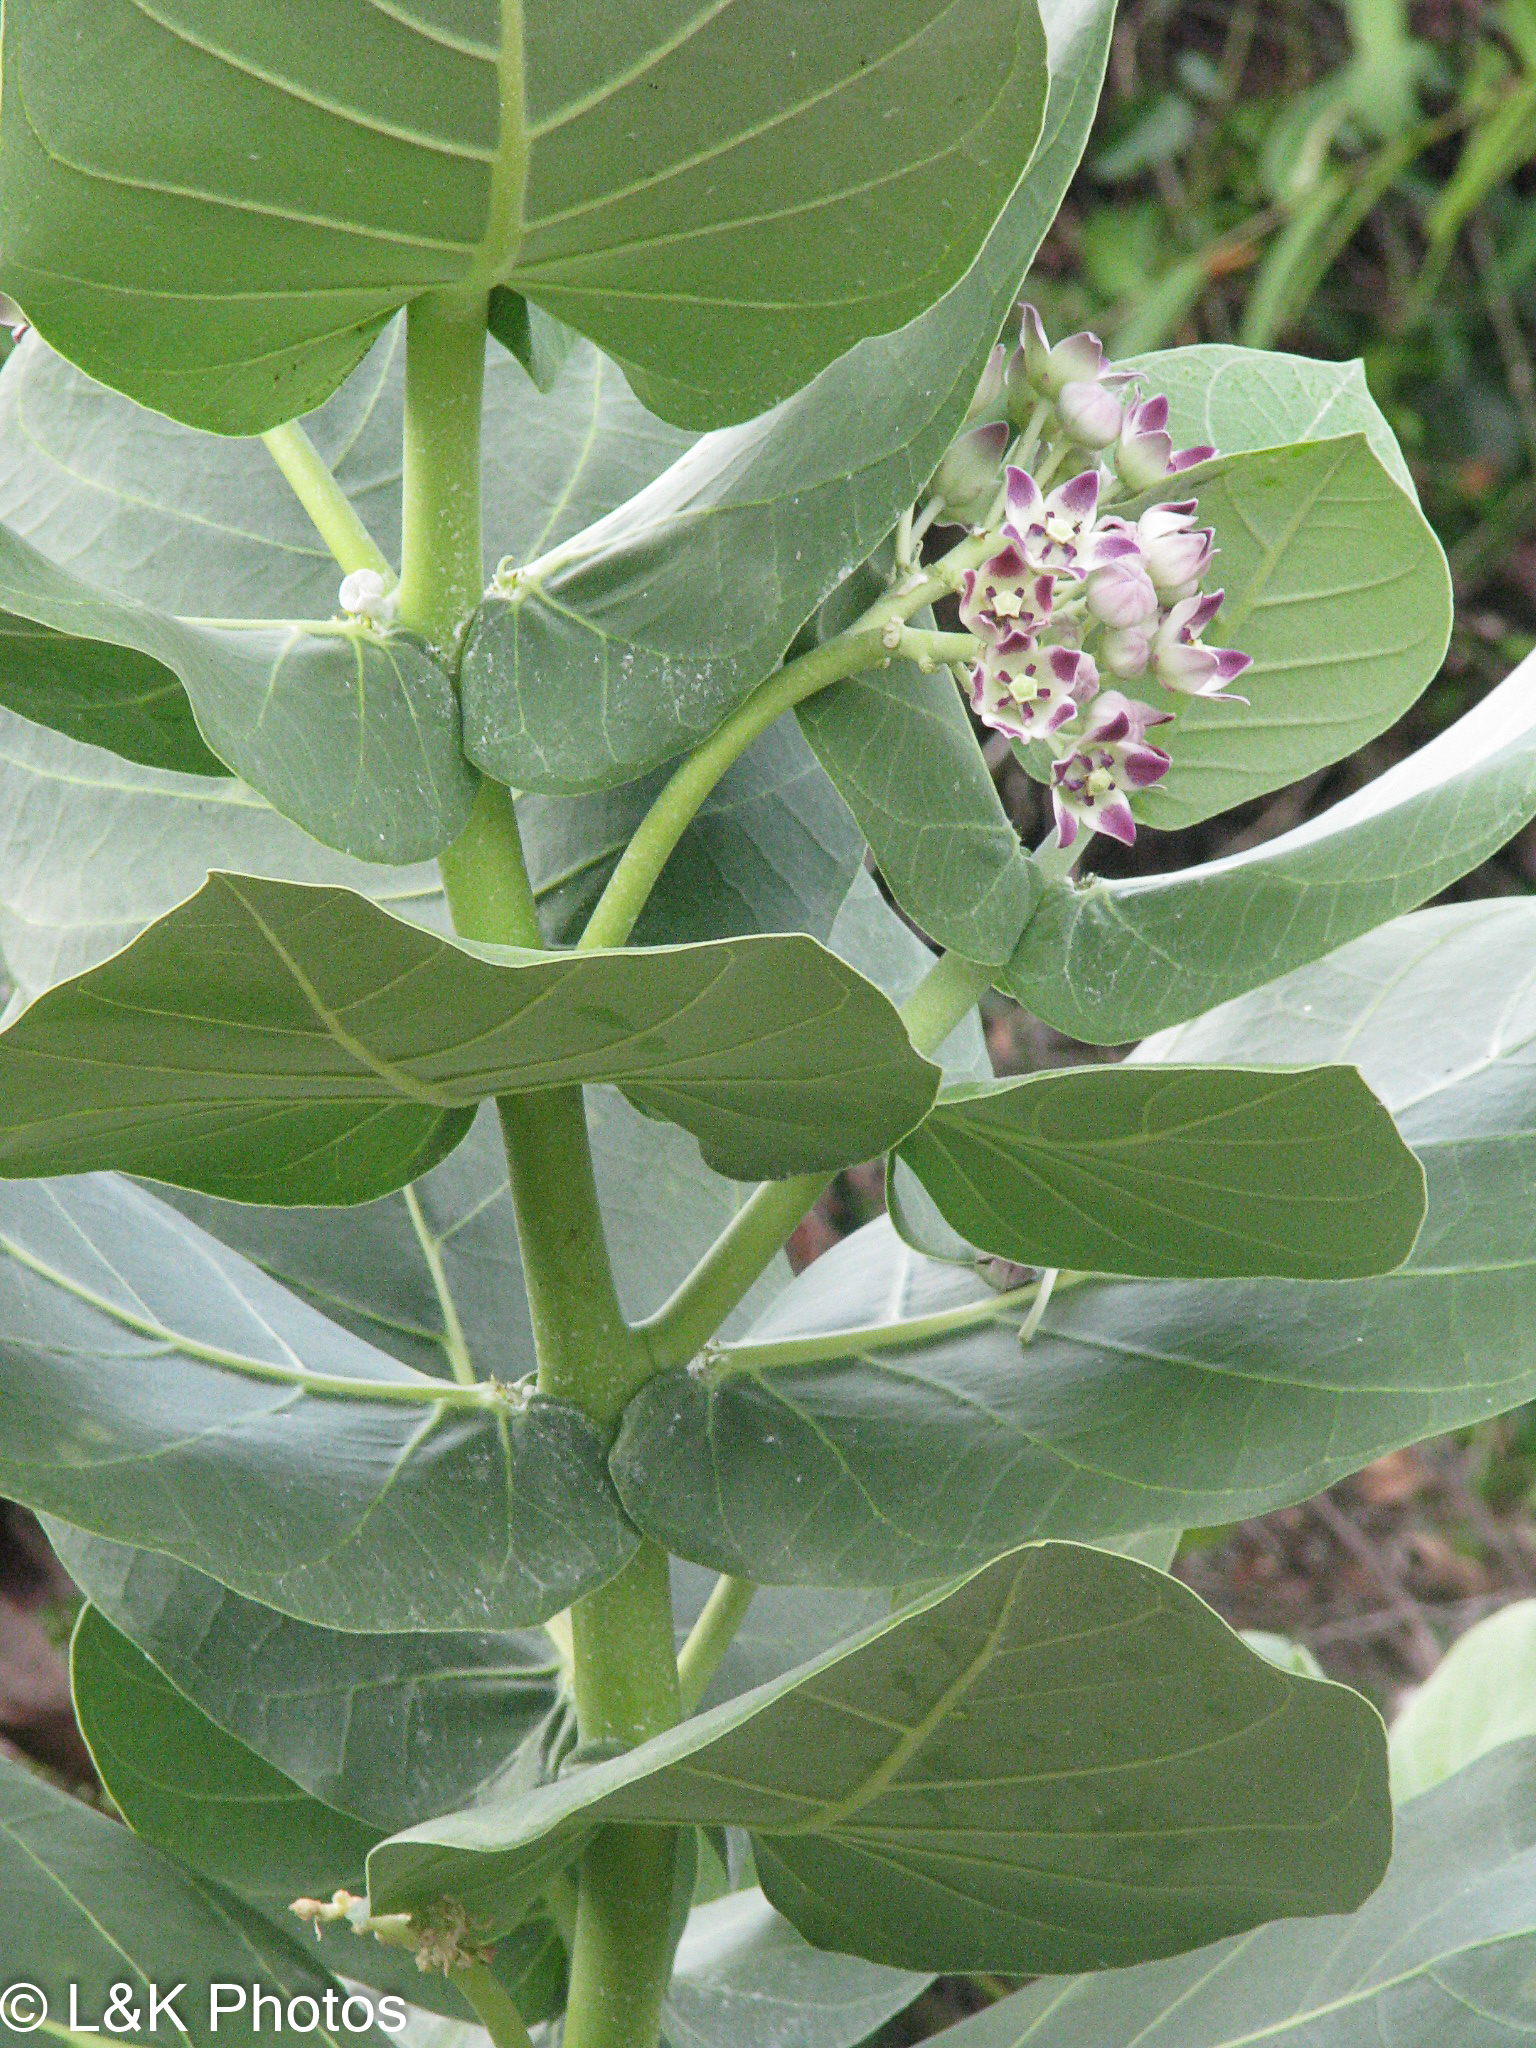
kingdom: Plantae
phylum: Tracheophyta
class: Magnoliopsida
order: Gentianales
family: Apocynaceae
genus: Calotropis
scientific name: Calotropis procera
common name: Roostertree
